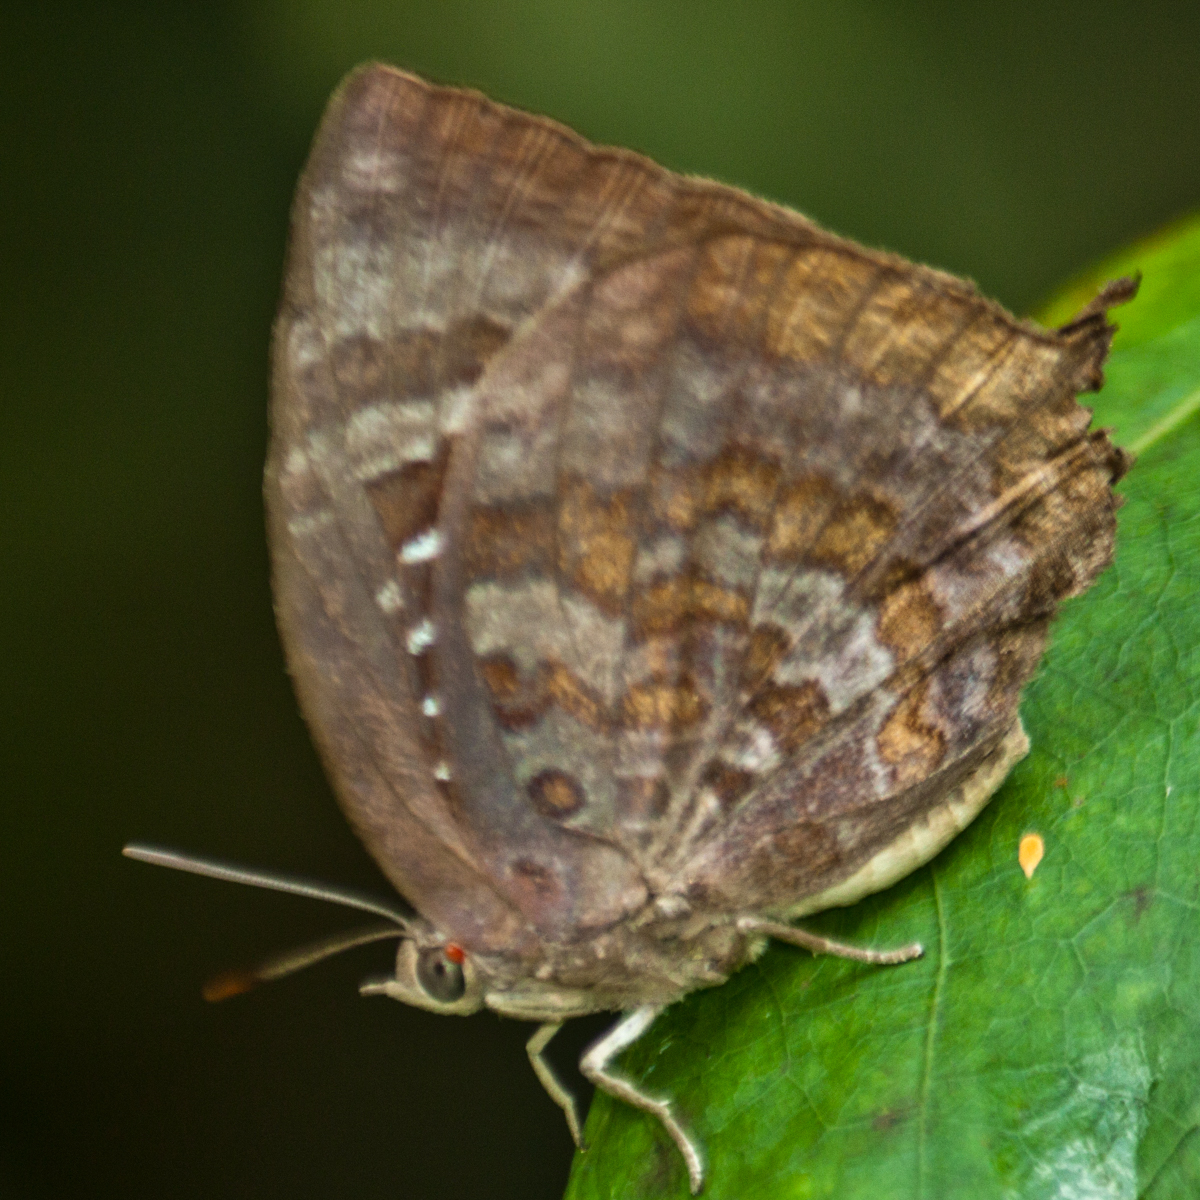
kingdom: Animalia
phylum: Arthropoda
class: Insecta
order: Lepidoptera
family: Lycaenidae
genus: Arhopala
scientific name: Arhopala centaurus
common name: Dull oak-blue
